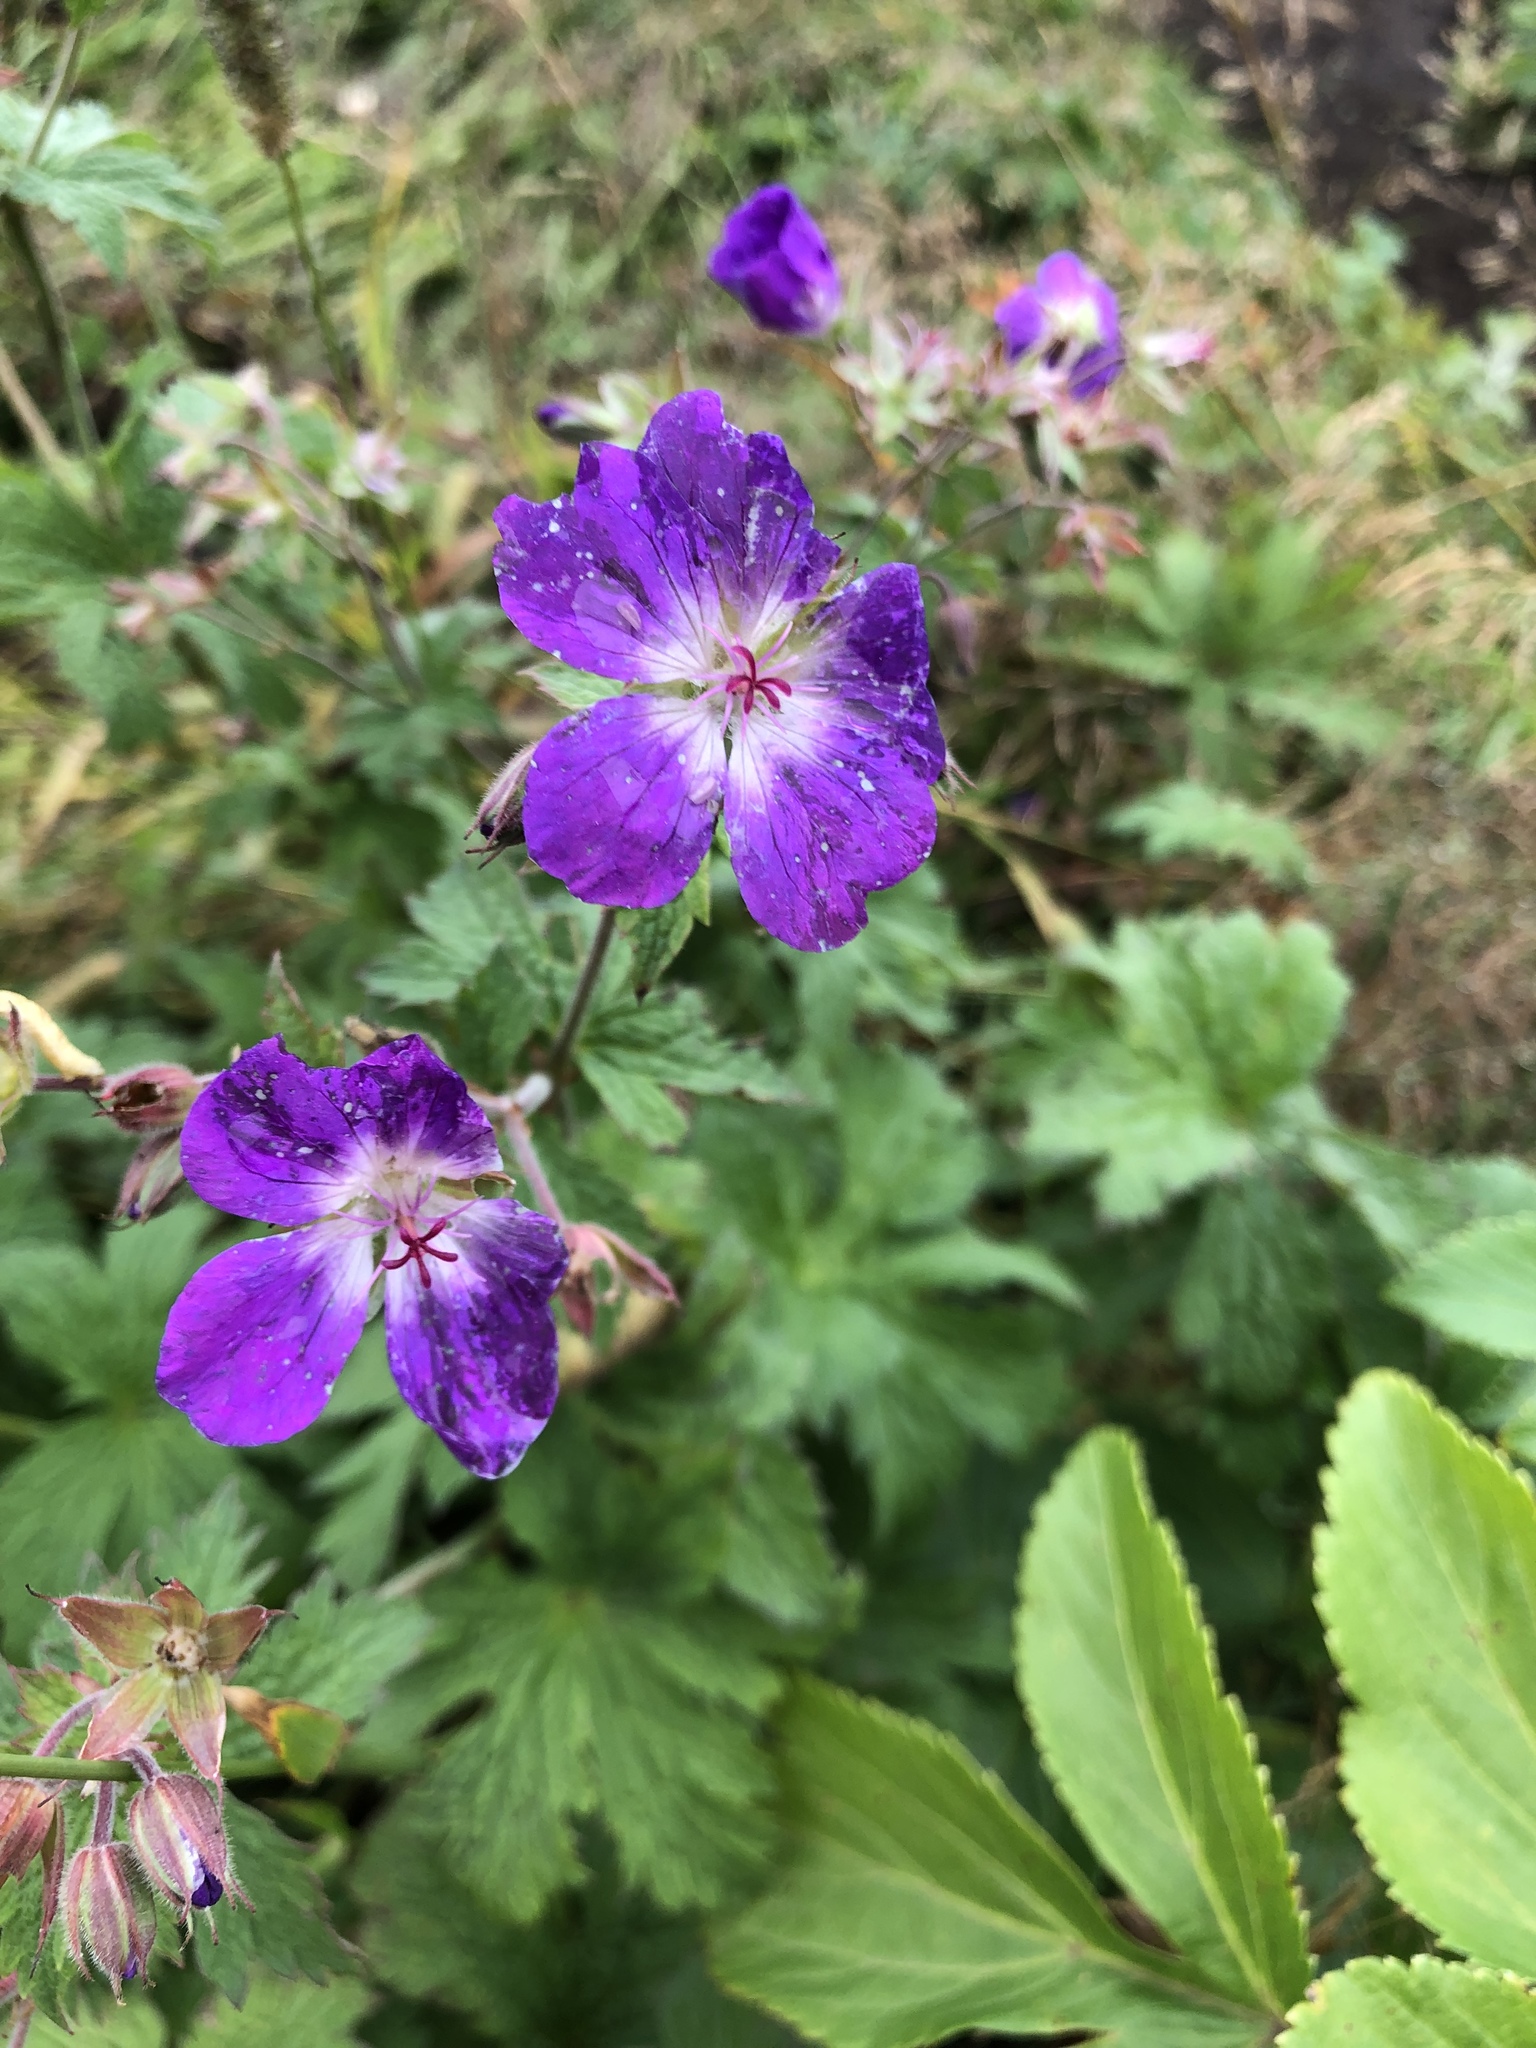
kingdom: Plantae
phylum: Tracheophyta
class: Magnoliopsida
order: Geraniales
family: Geraniaceae
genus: Geranium
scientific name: Geranium sylvaticum
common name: Wood crane's-bill
